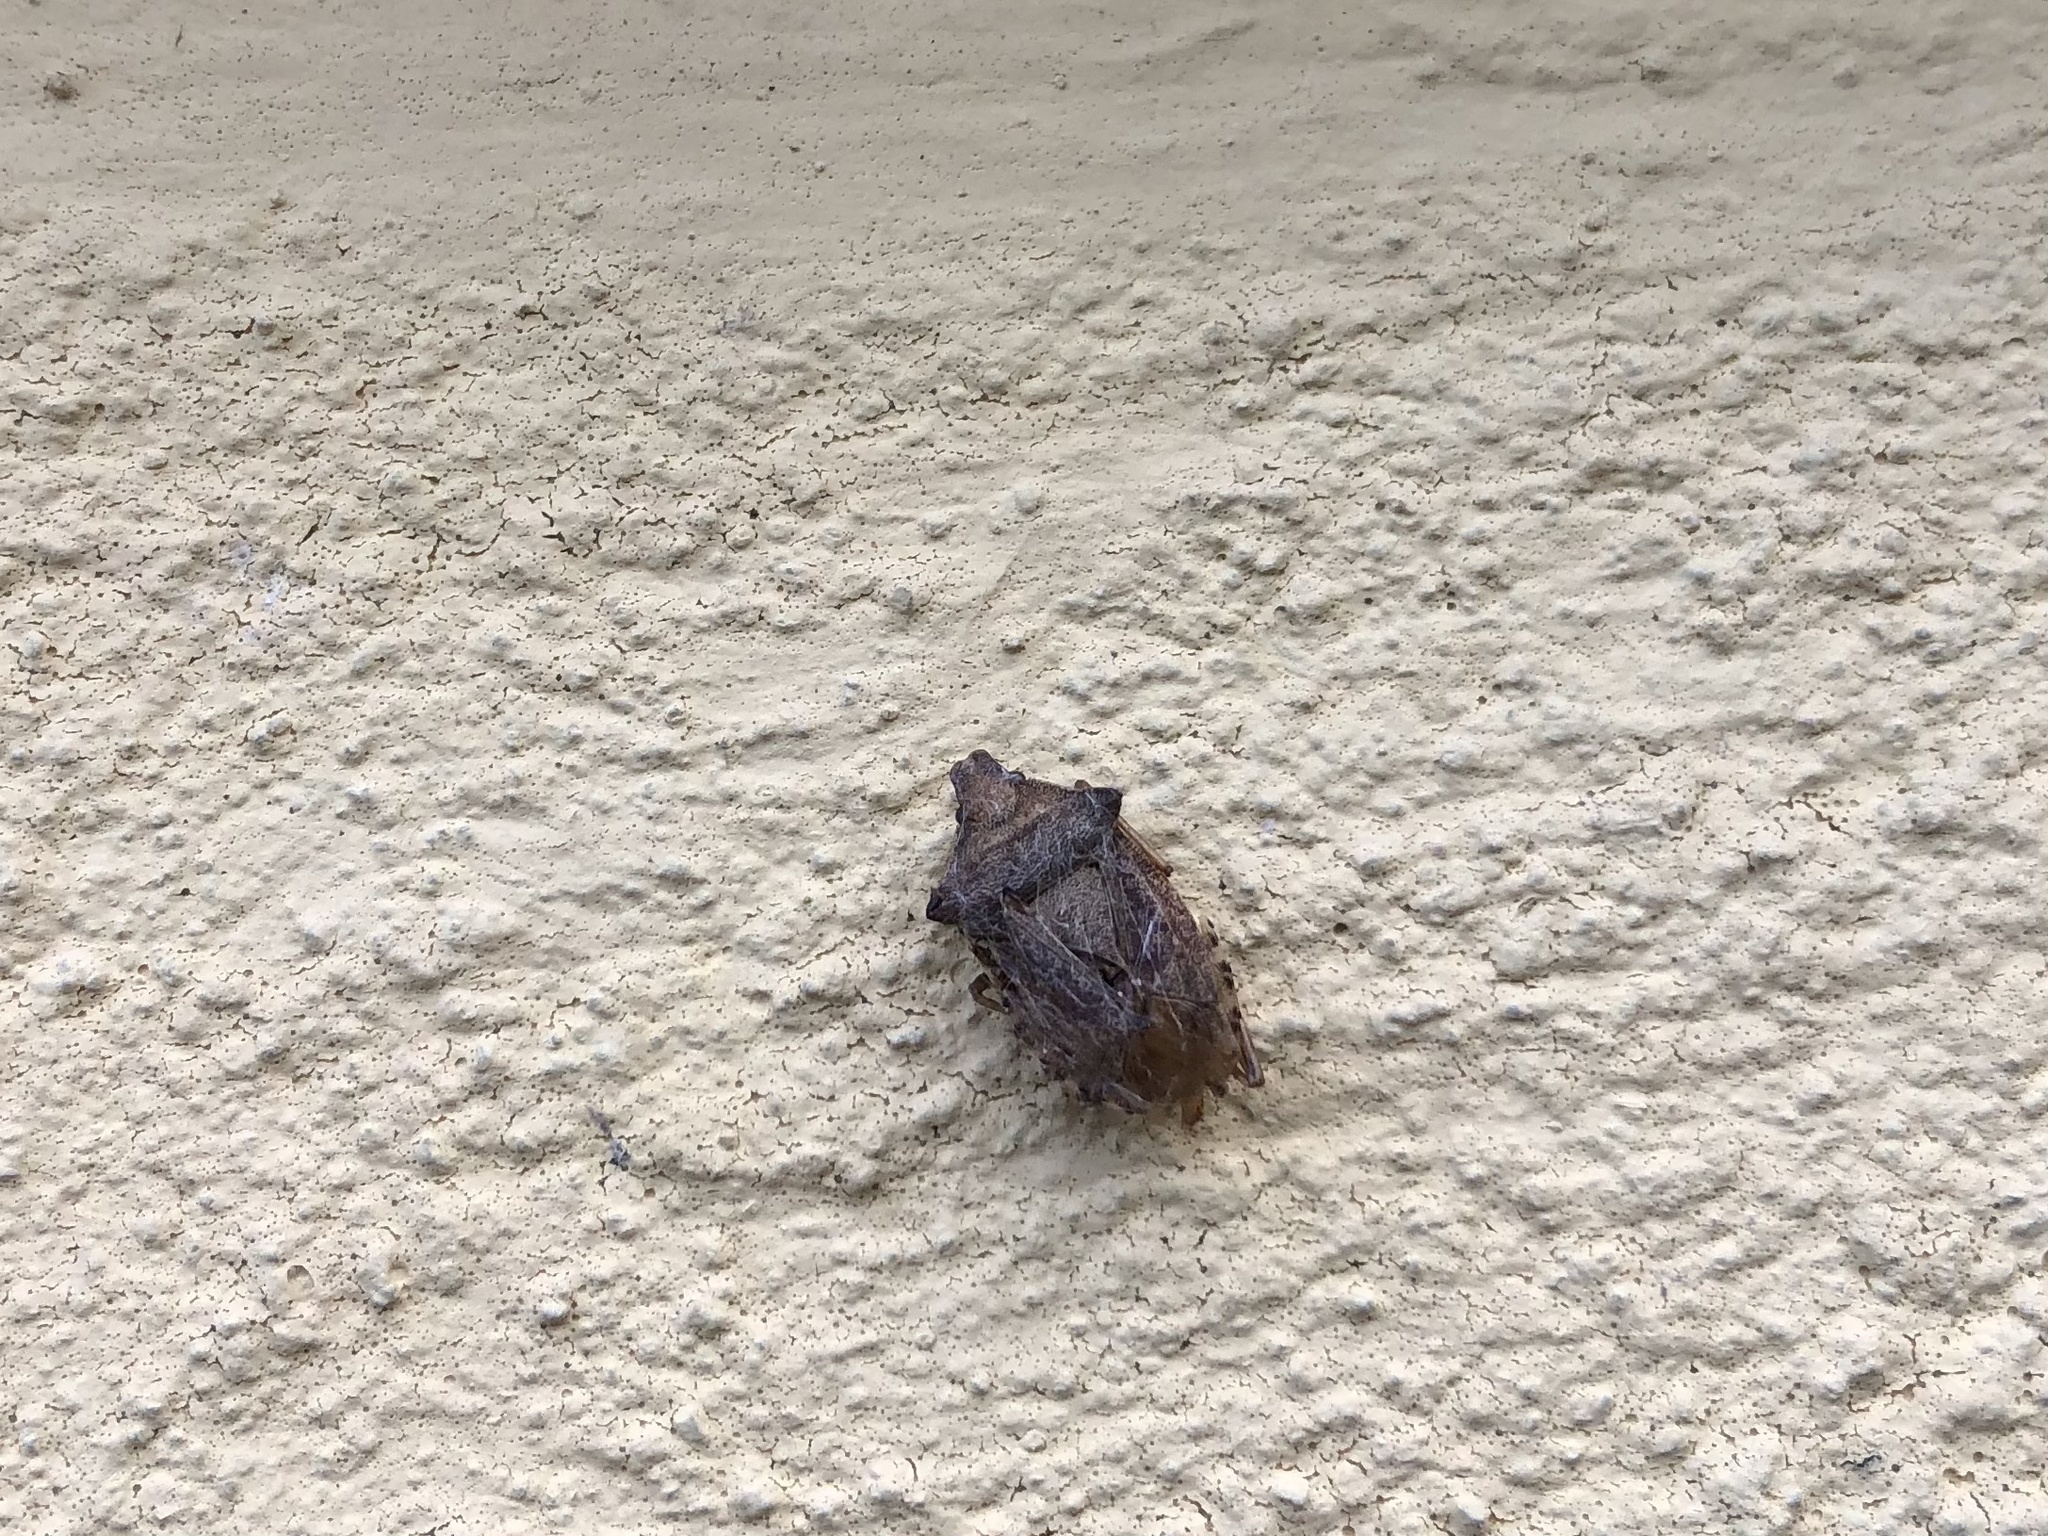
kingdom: Animalia
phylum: Arthropoda
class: Insecta
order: Hemiptera
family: Pentatomidae
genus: Arma
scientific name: Arma custos
